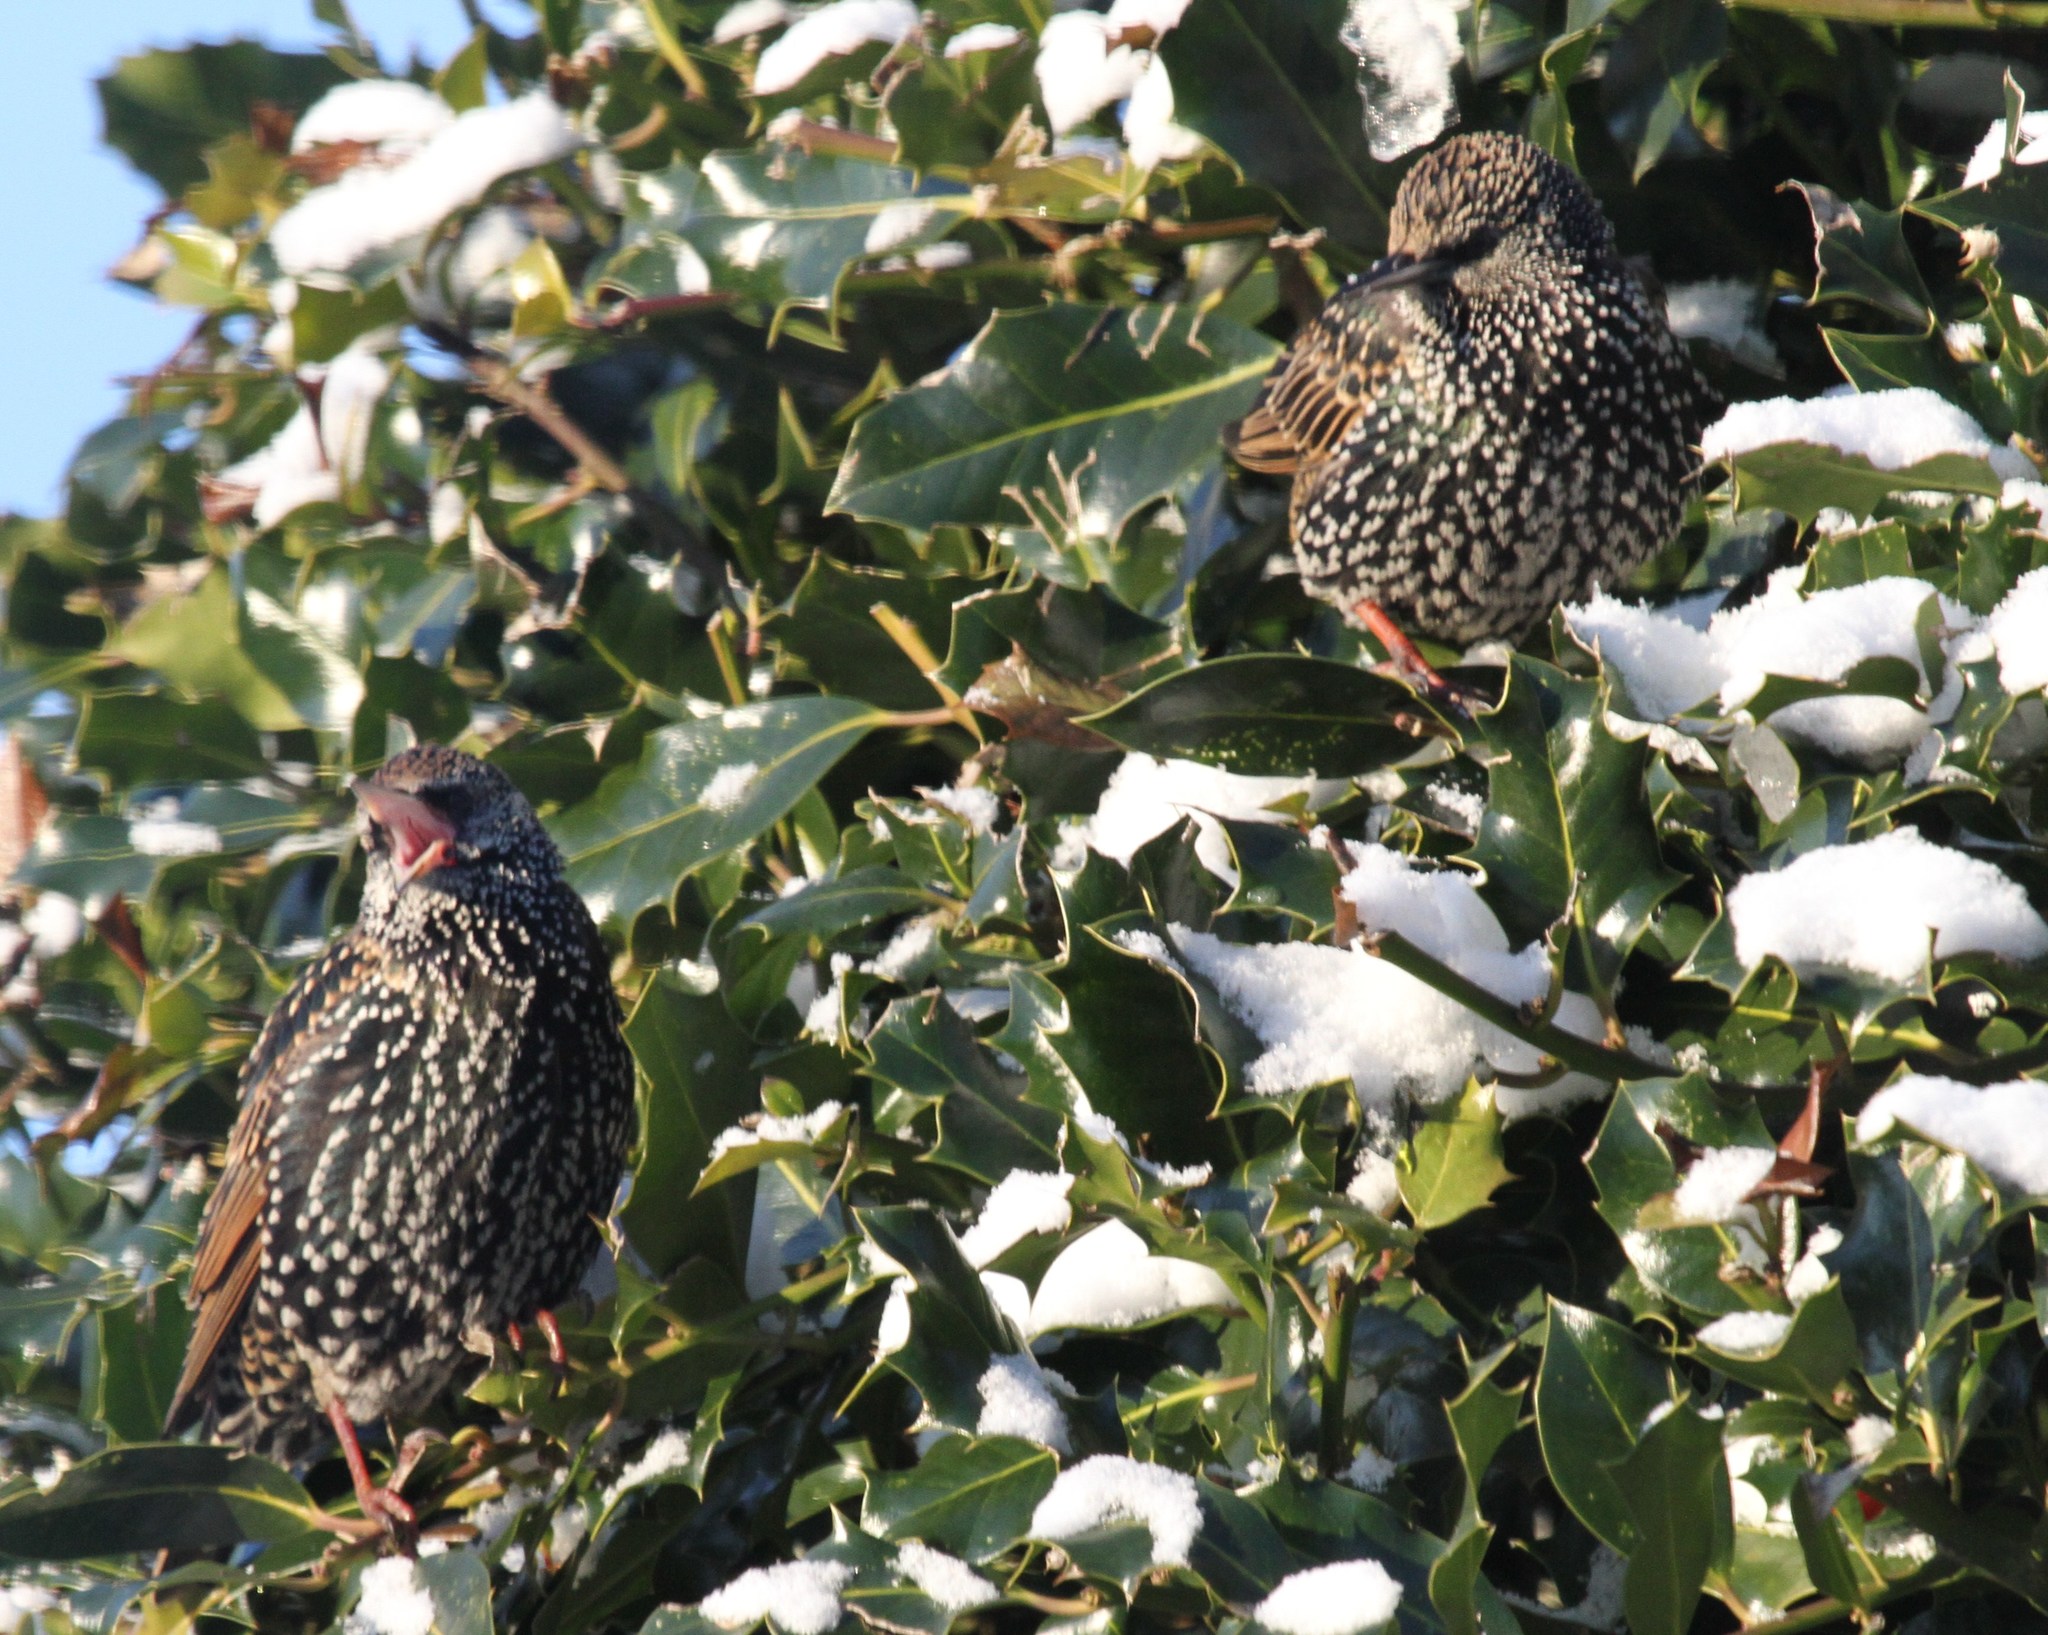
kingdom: Animalia
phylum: Chordata
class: Aves
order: Passeriformes
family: Sturnidae
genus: Sturnus
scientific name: Sturnus vulgaris
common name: Common starling
